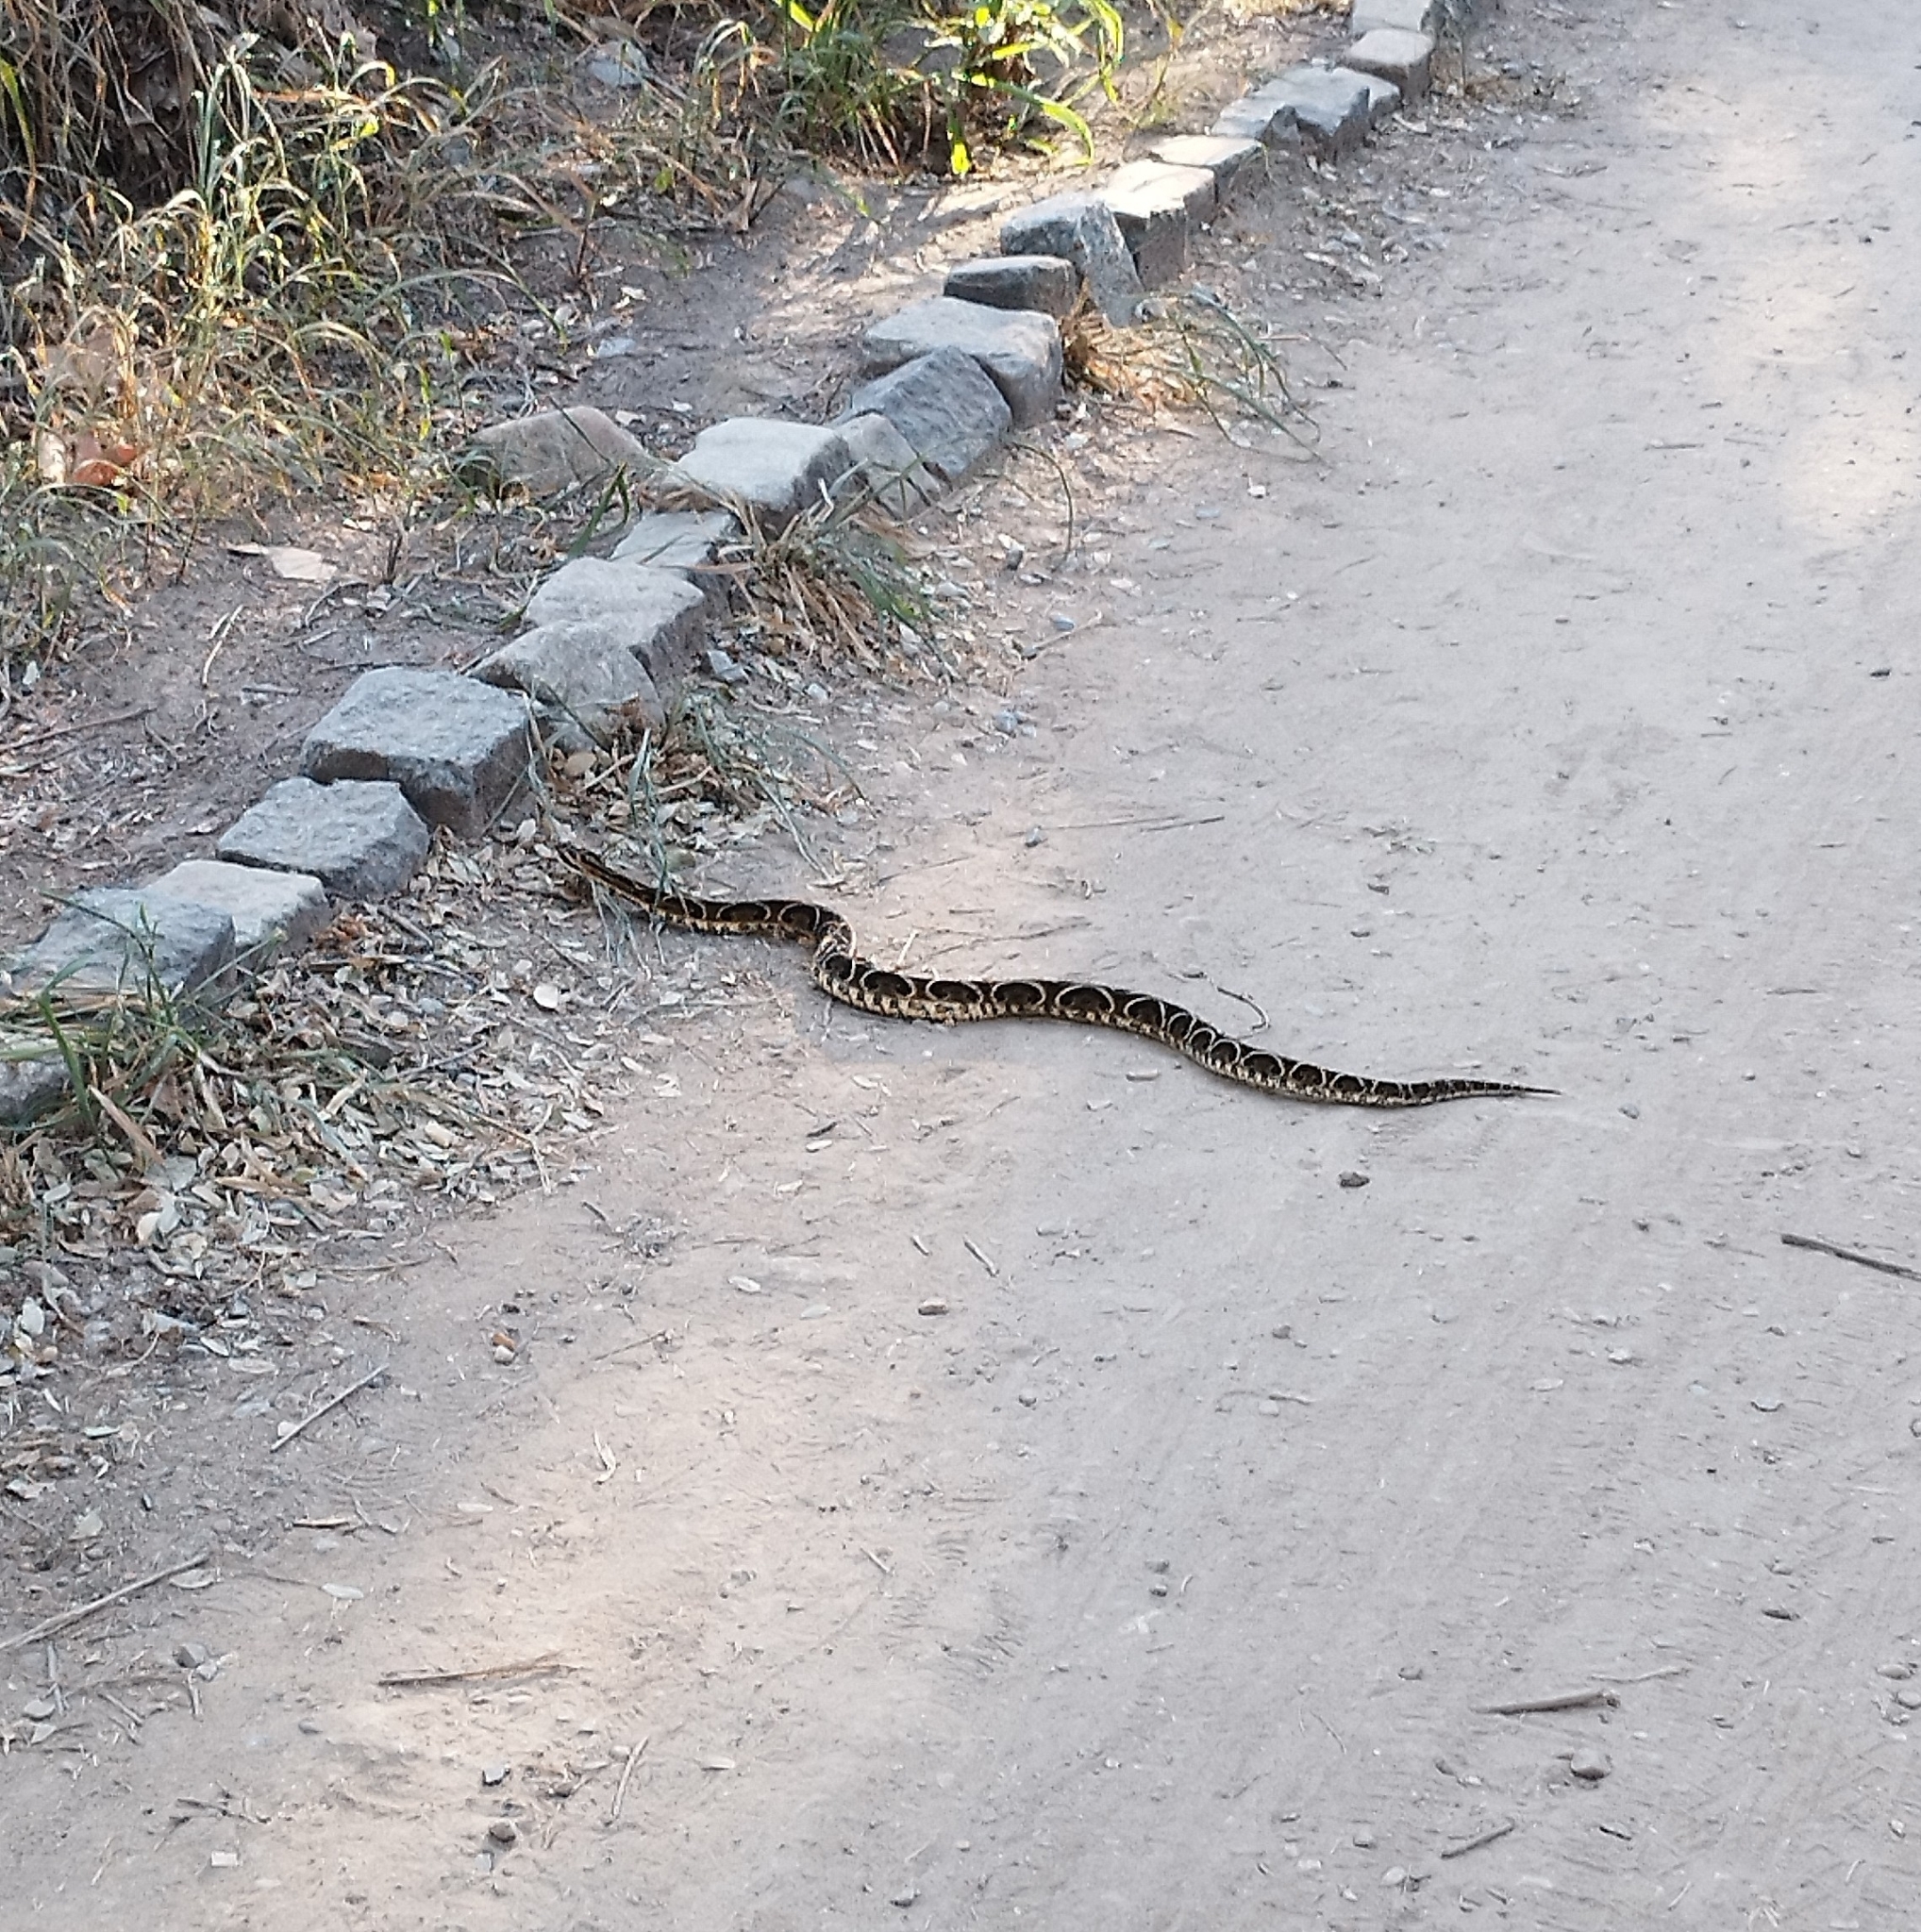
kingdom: Animalia
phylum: Chordata
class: Squamata
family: Viperidae
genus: Bothrops
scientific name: Bothrops alternatus
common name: Urutu
